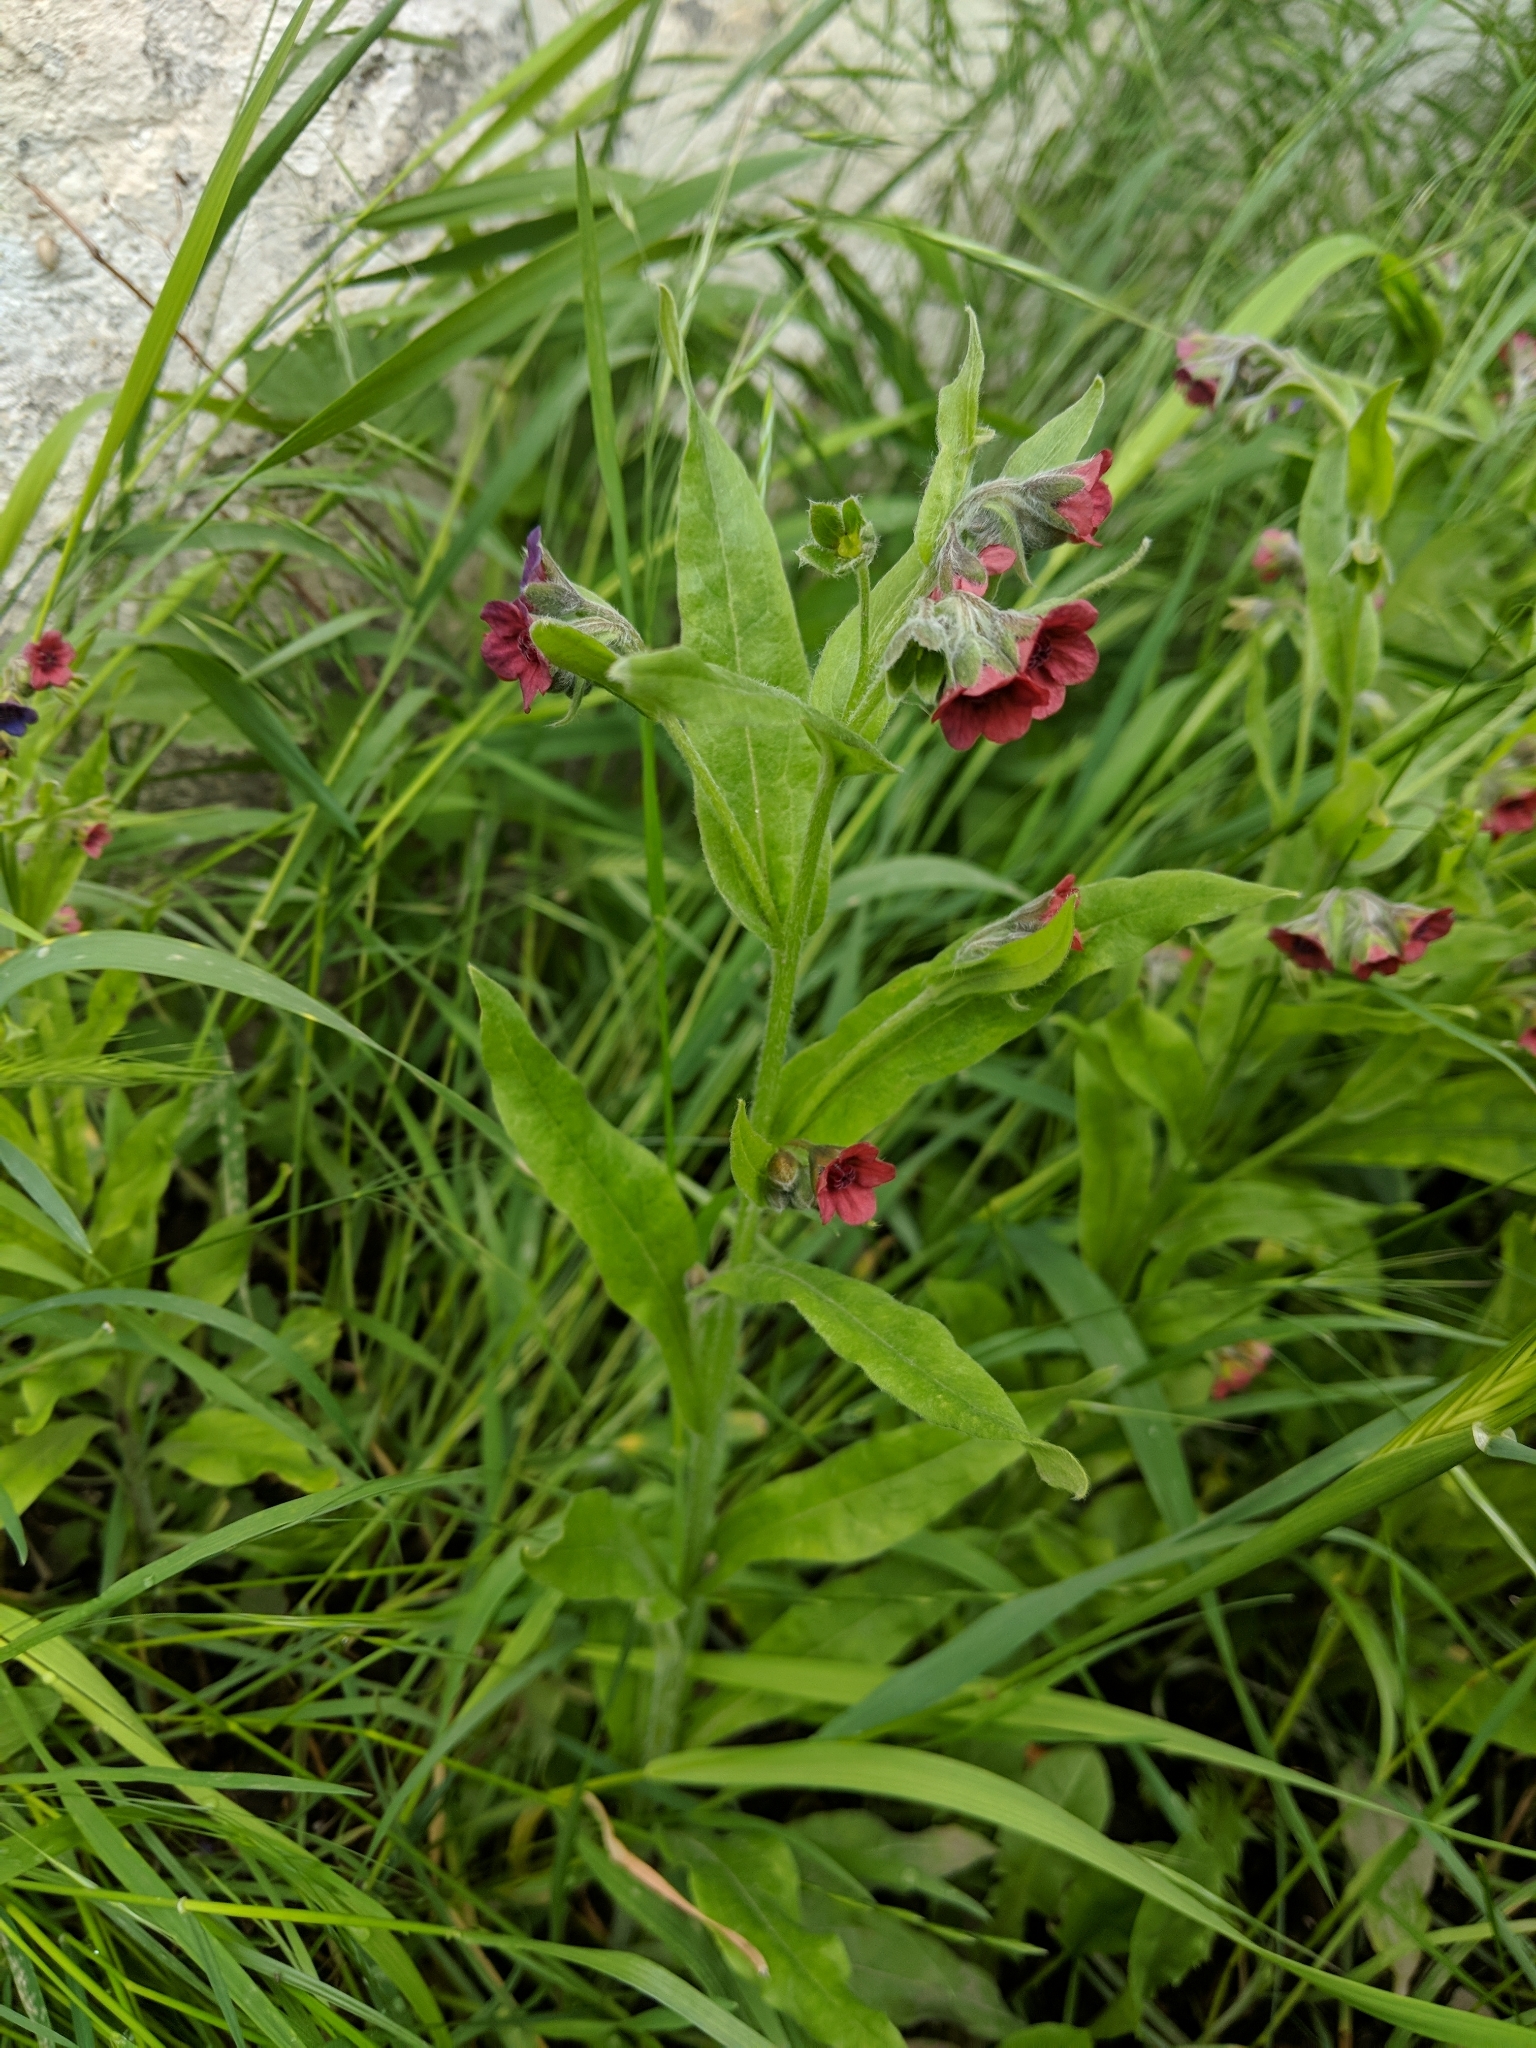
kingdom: Plantae
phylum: Tracheophyta
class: Magnoliopsida
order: Boraginales
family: Boraginaceae
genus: Cynoglossum
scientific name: Cynoglossum officinale
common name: Hound's-tongue
